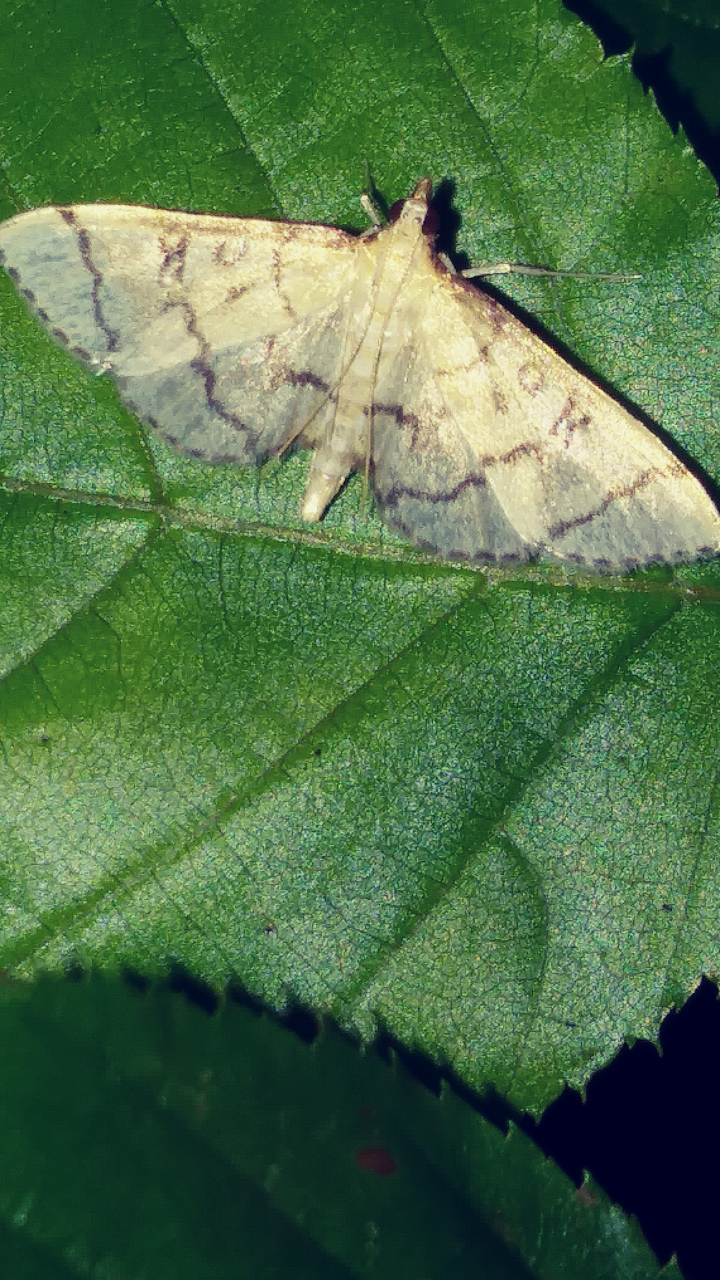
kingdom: Animalia
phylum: Arthropoda
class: Insecta
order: Lepidoptera
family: Crambidae
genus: Lamprosema
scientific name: Lamprosema Blepharomastix ranalis
